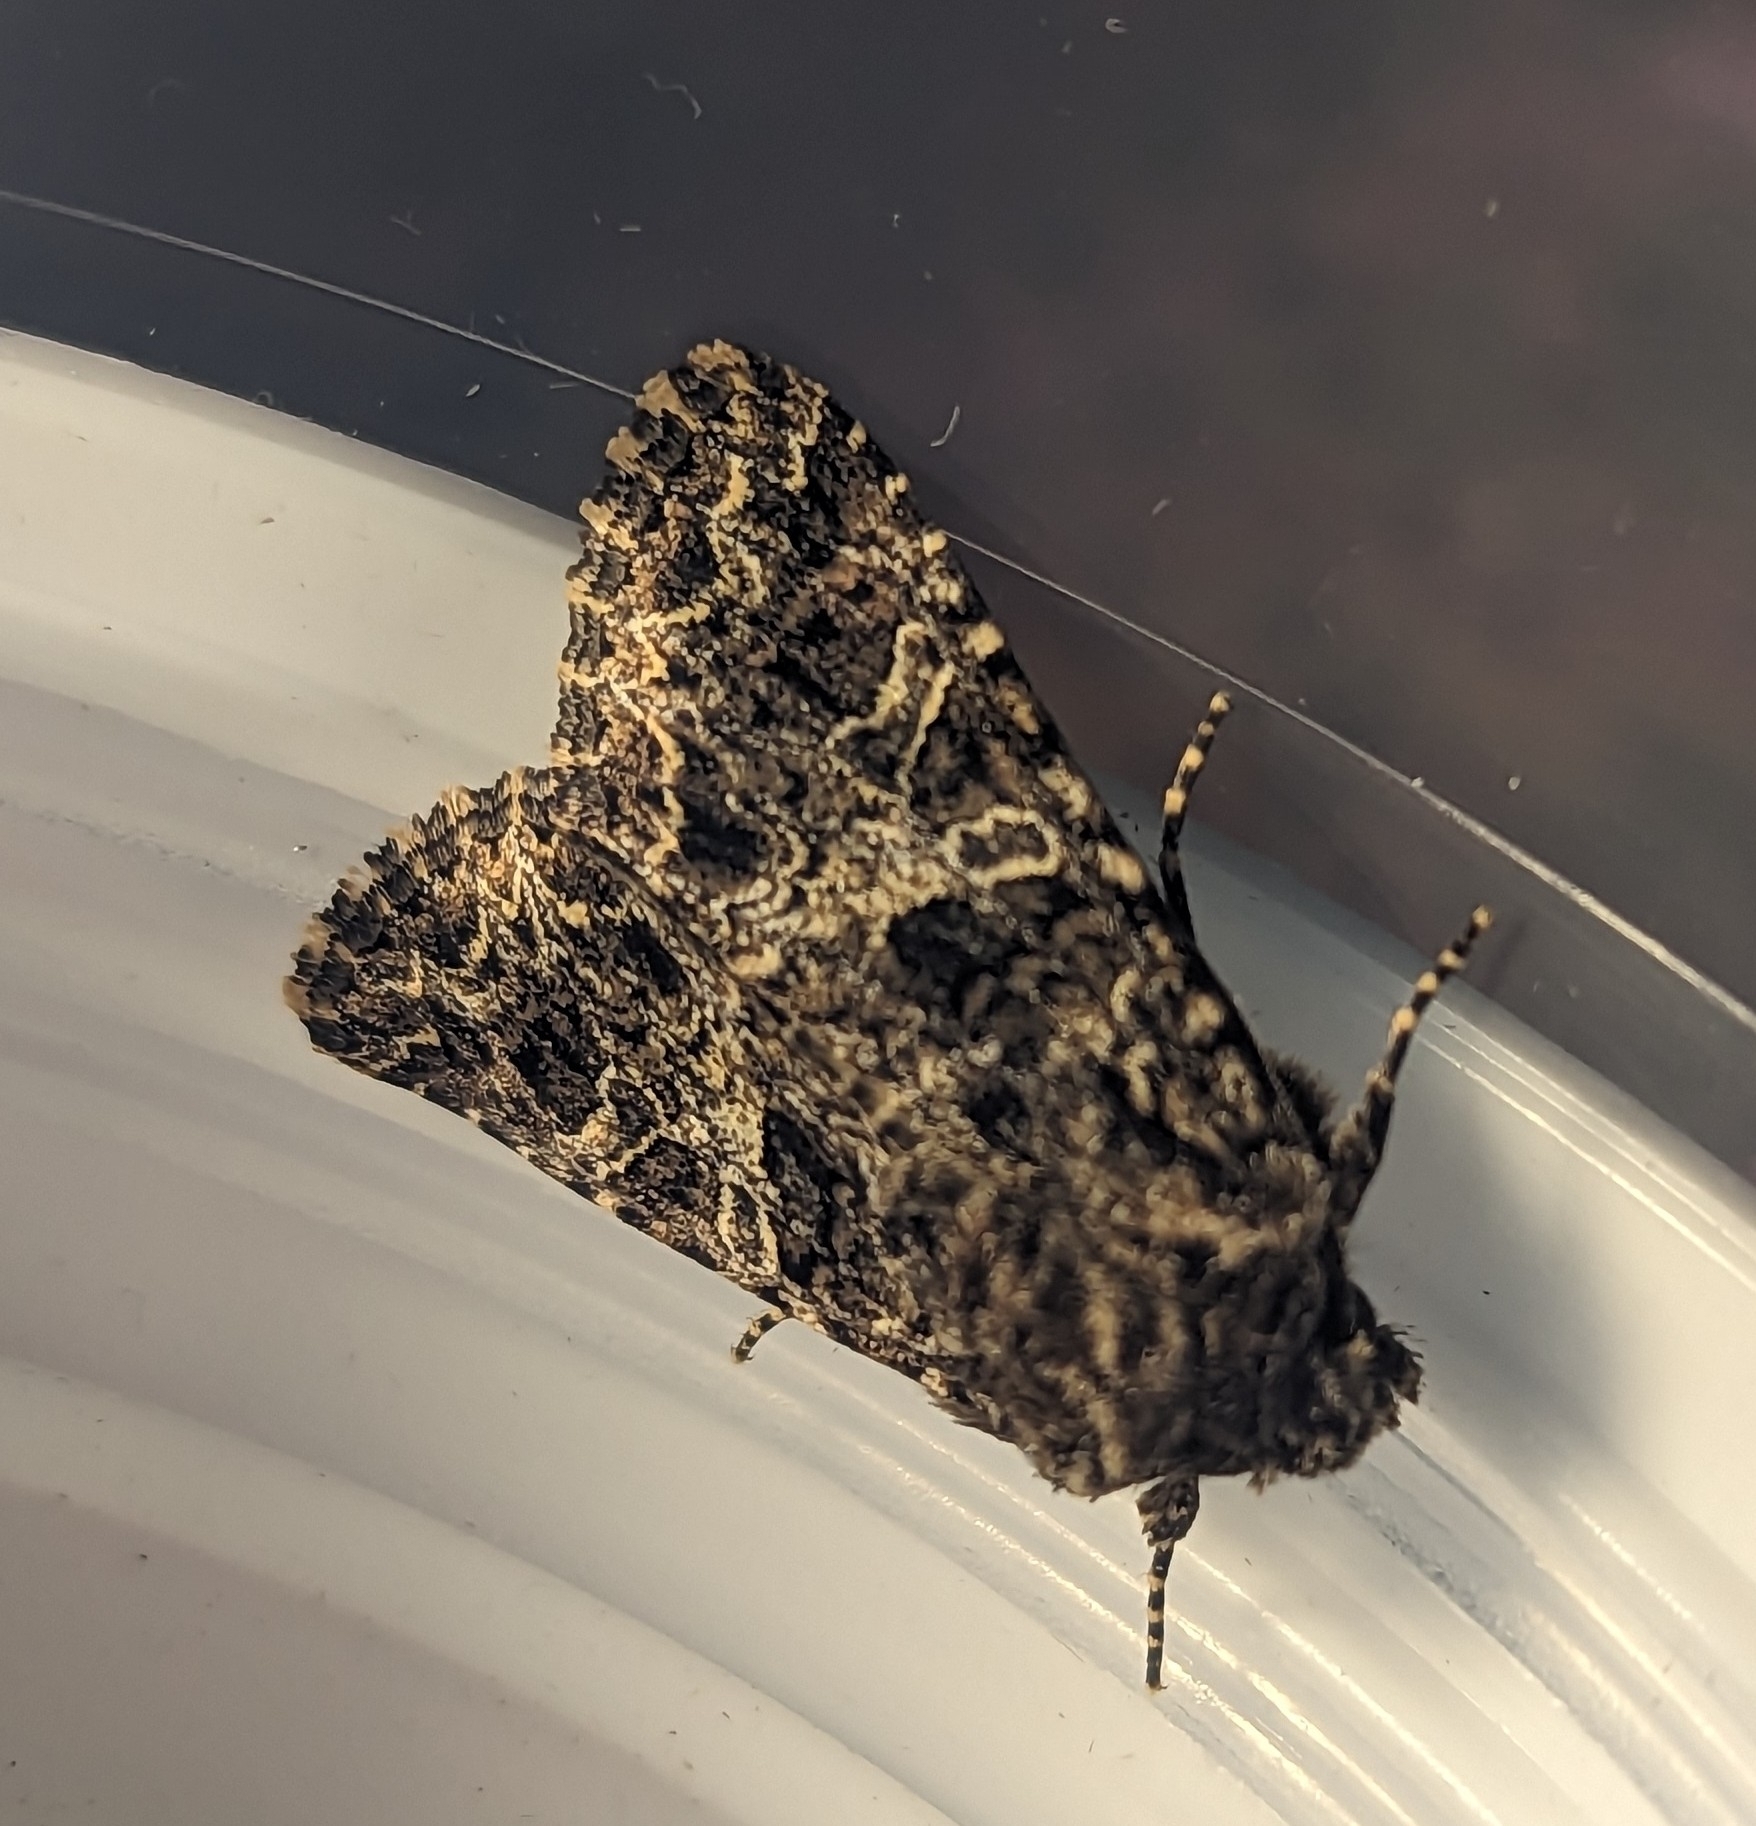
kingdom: Animalia
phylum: Arthropoda
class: Insecta
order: Lepidoptera
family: Noctuidae
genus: Hadena
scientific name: Hadena bicruris
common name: Lychnis
